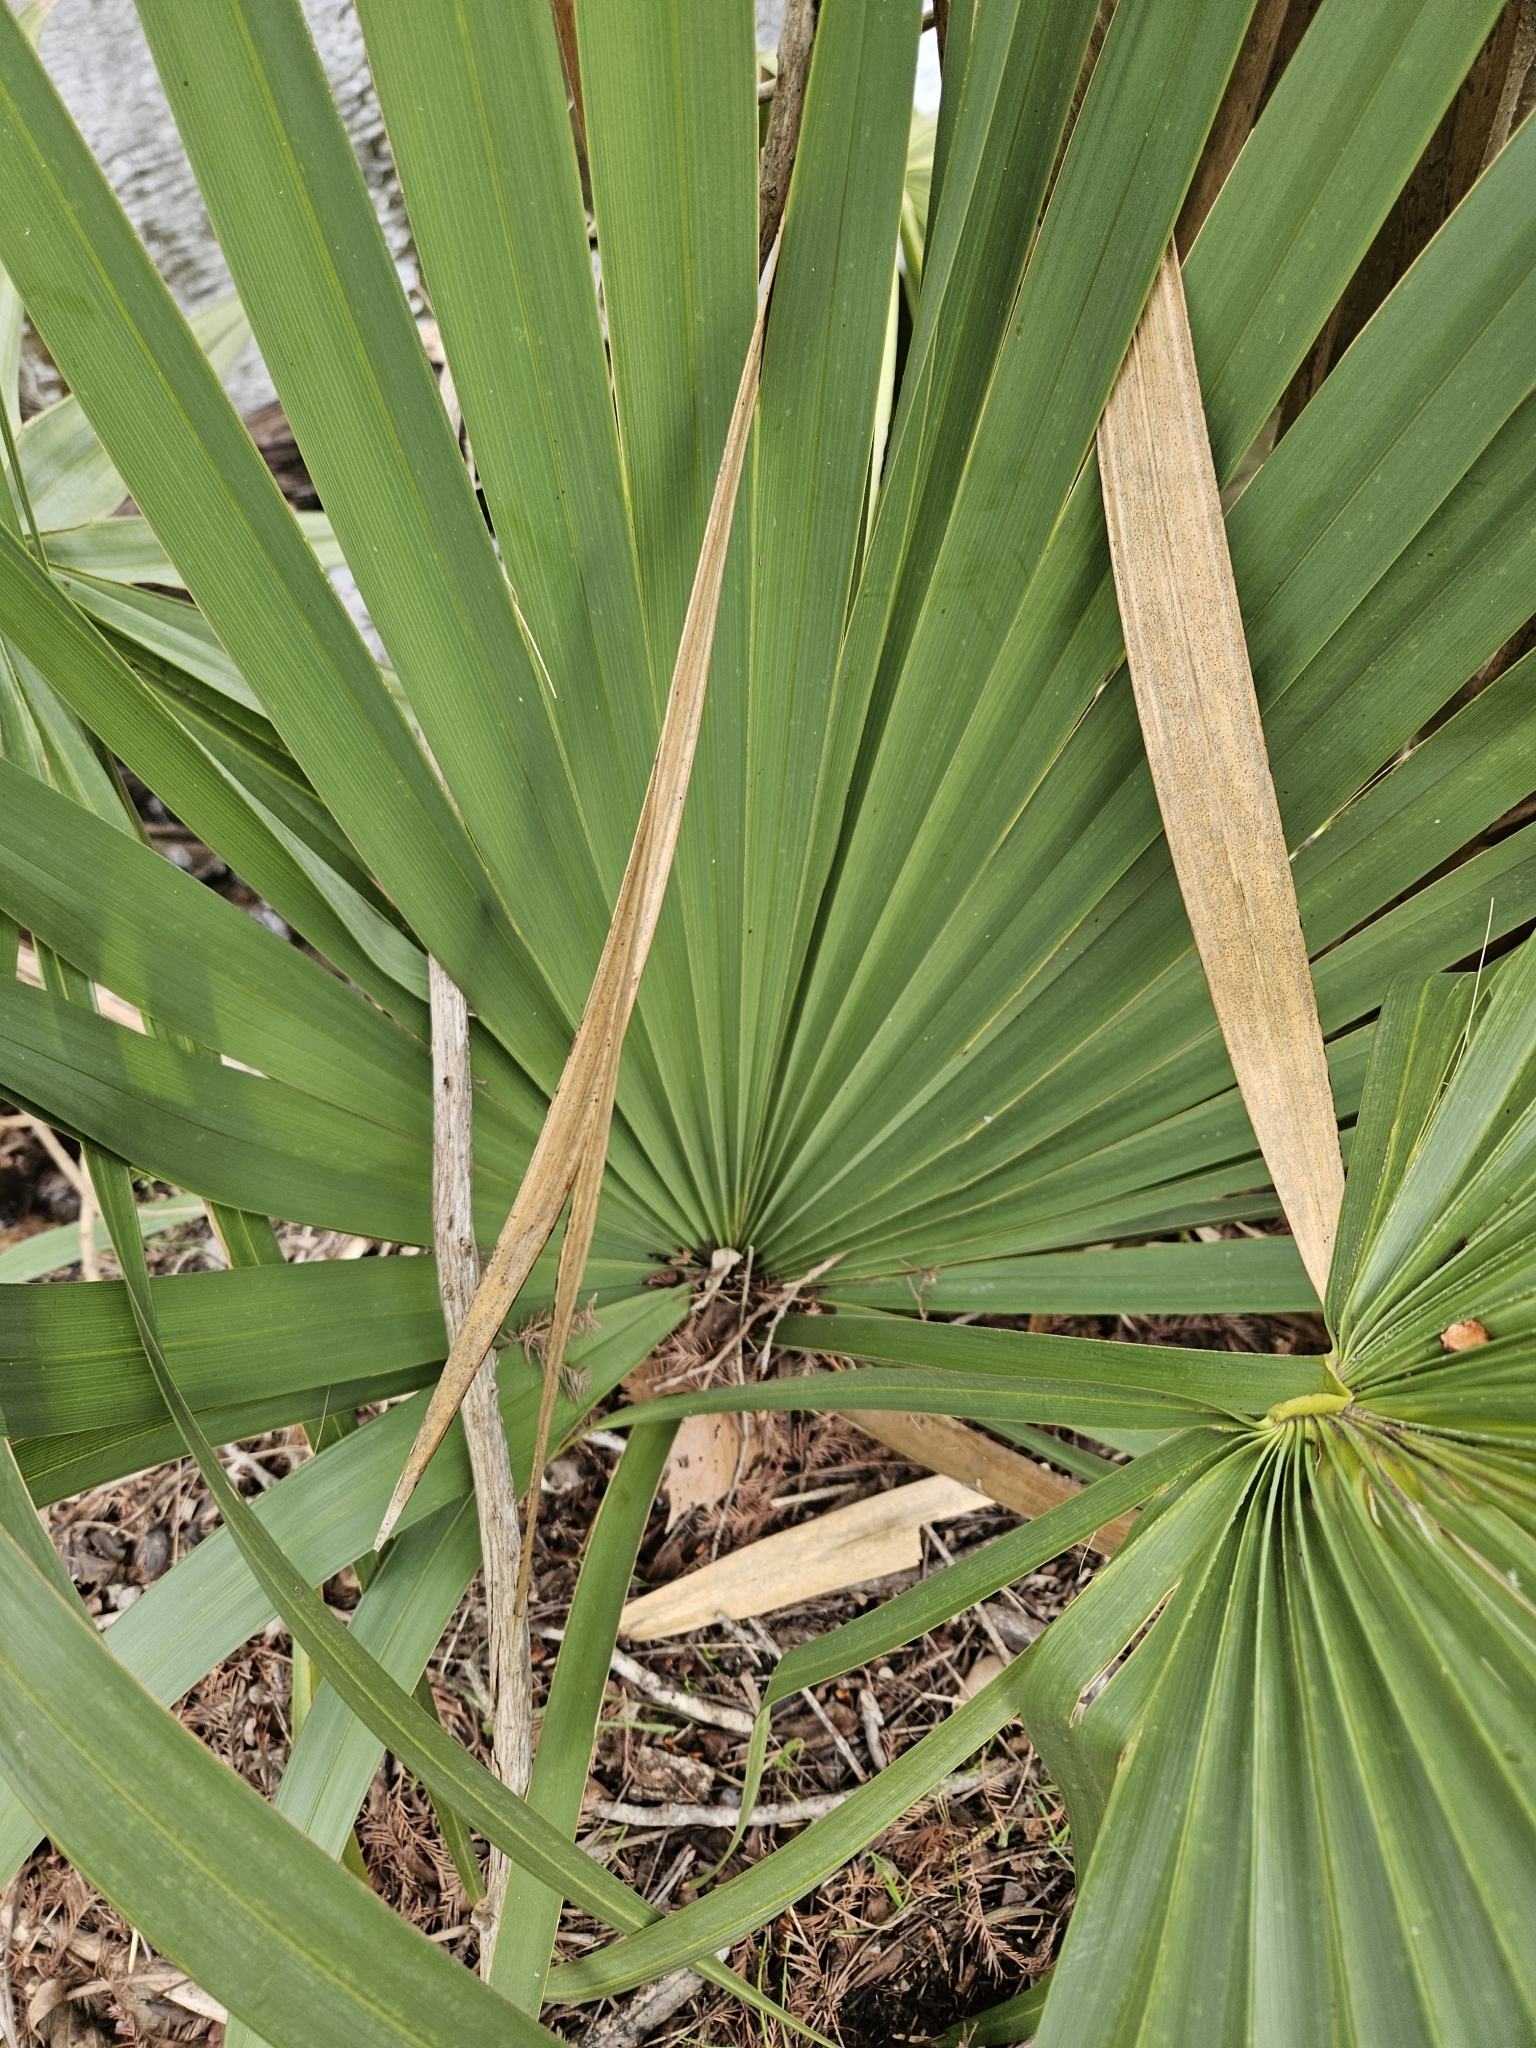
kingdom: Plantae
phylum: Tracheophyta
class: Liliopsida
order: Arecales
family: Arecaceae
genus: Sabal
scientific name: Sabal minor
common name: Dwarf palmetto
